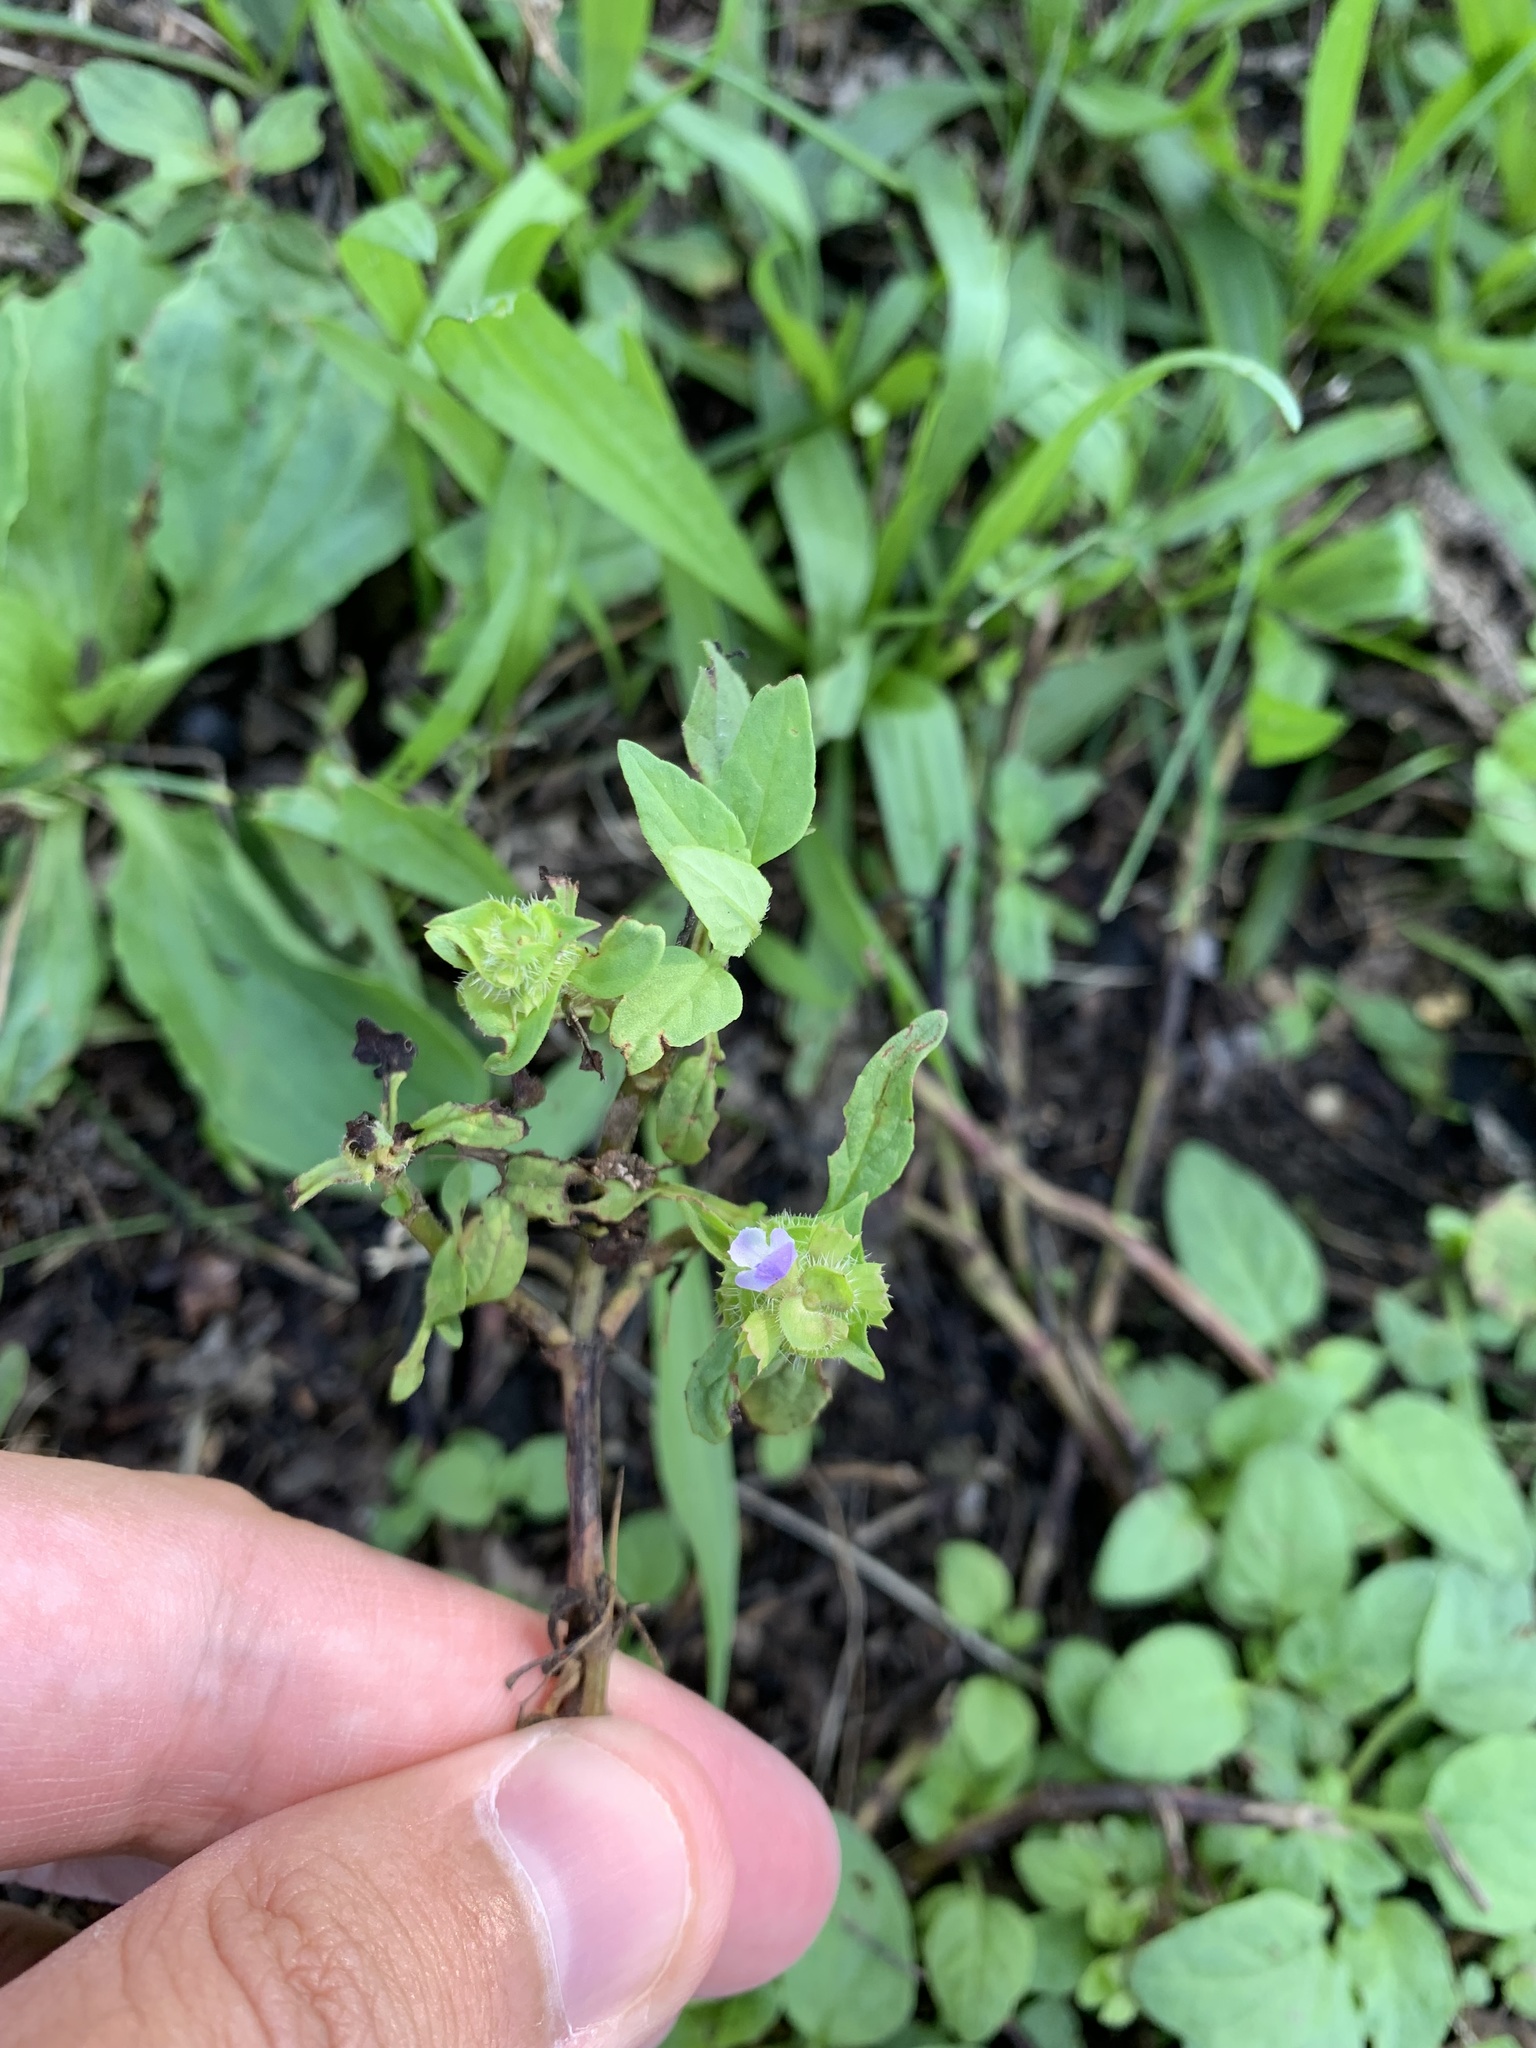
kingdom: Plantae
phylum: Tracheophyta
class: Magnoliopsida
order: Lamiales
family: Lamiaceae
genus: Prunella
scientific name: Prunella vulgaris
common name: Heal-all
